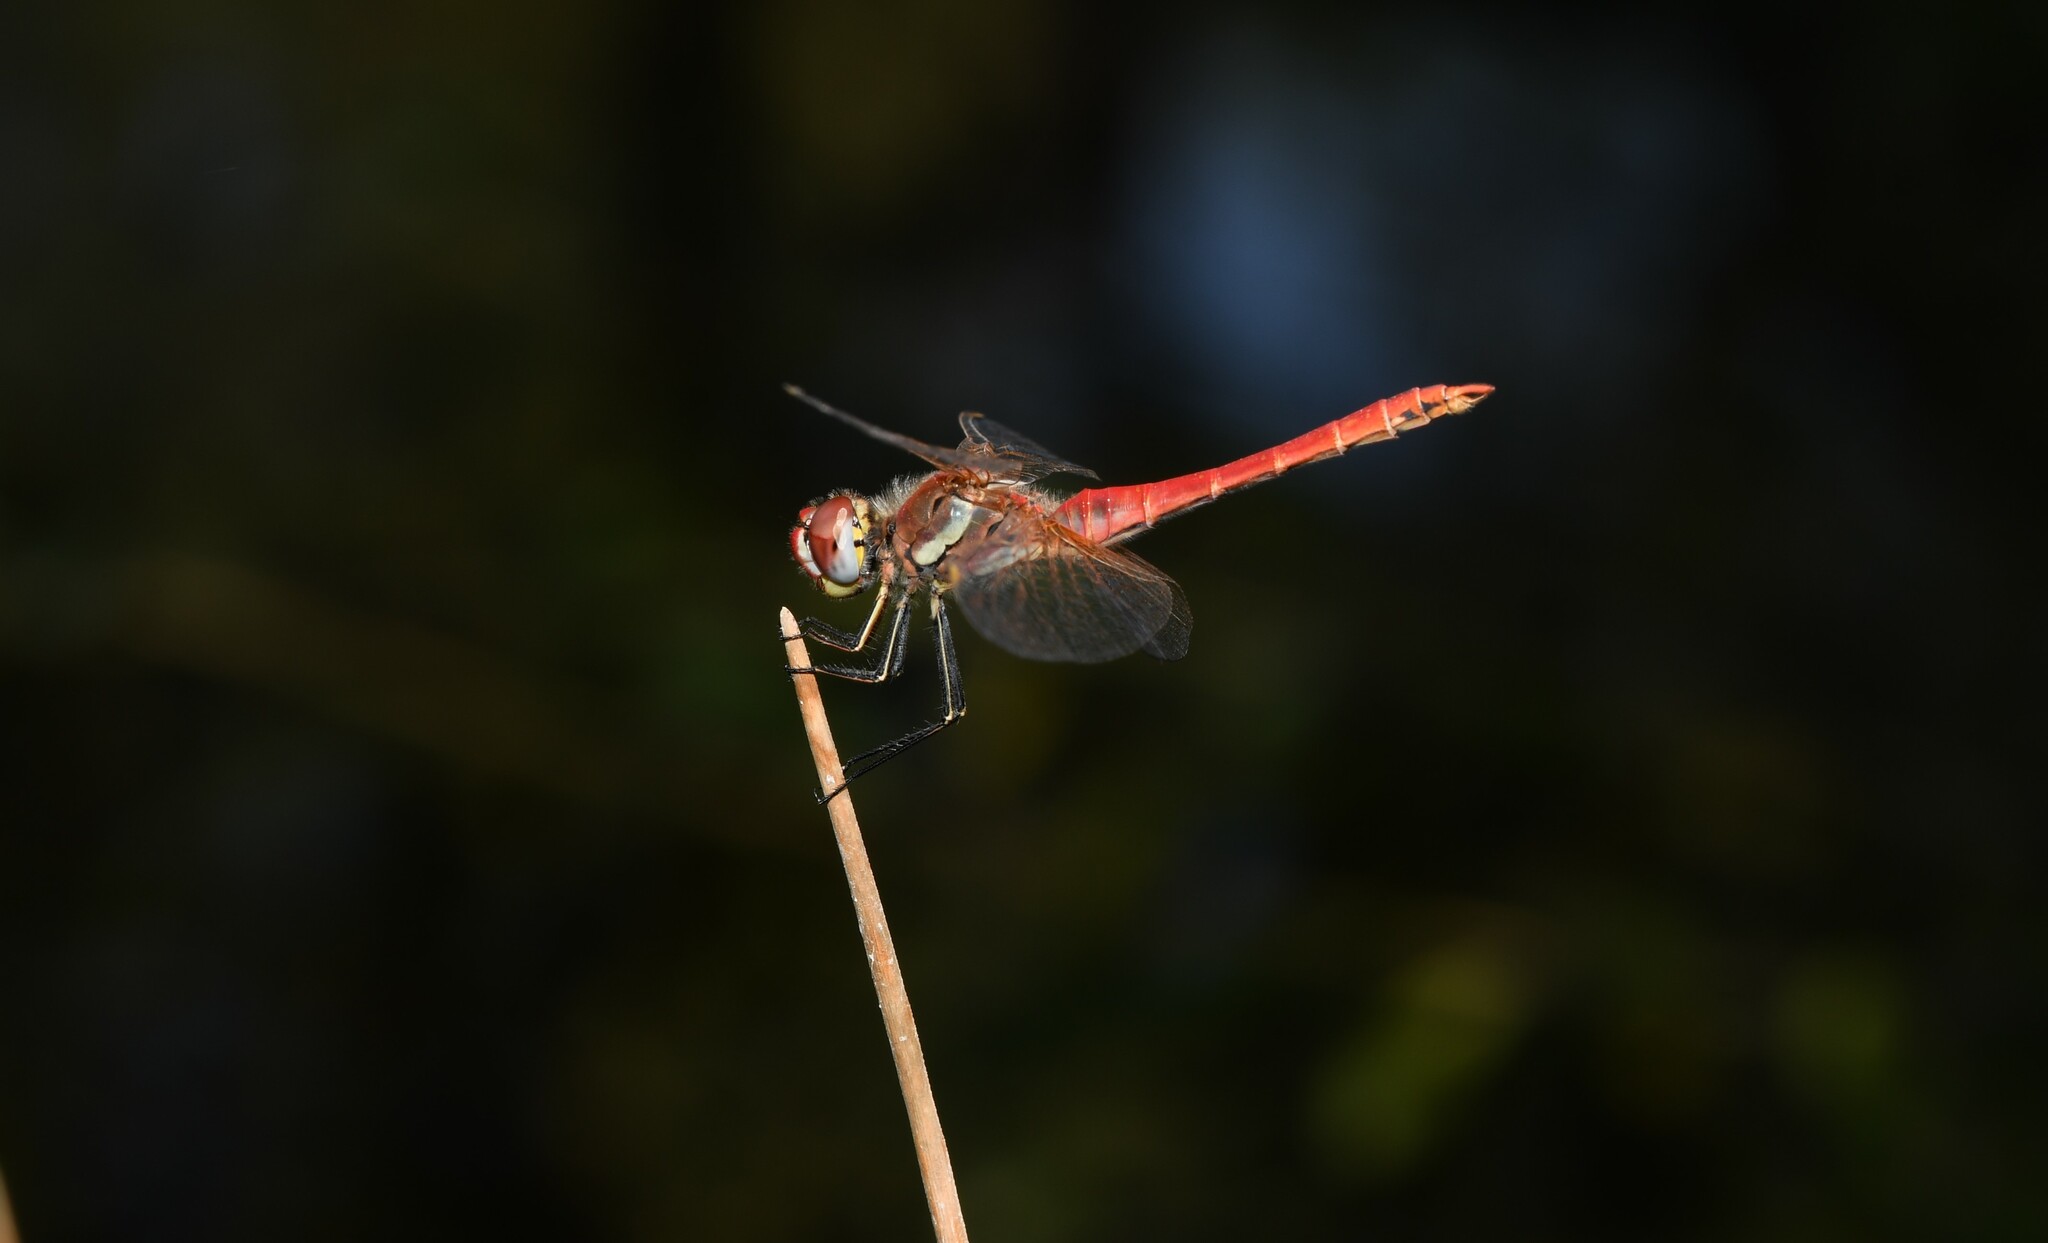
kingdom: Animalia
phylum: Arthropoda
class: Insecta
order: Odonata
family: Libellulidae
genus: Sympetrum
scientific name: Sympetrum fonscolombii
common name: Red-veined darter
